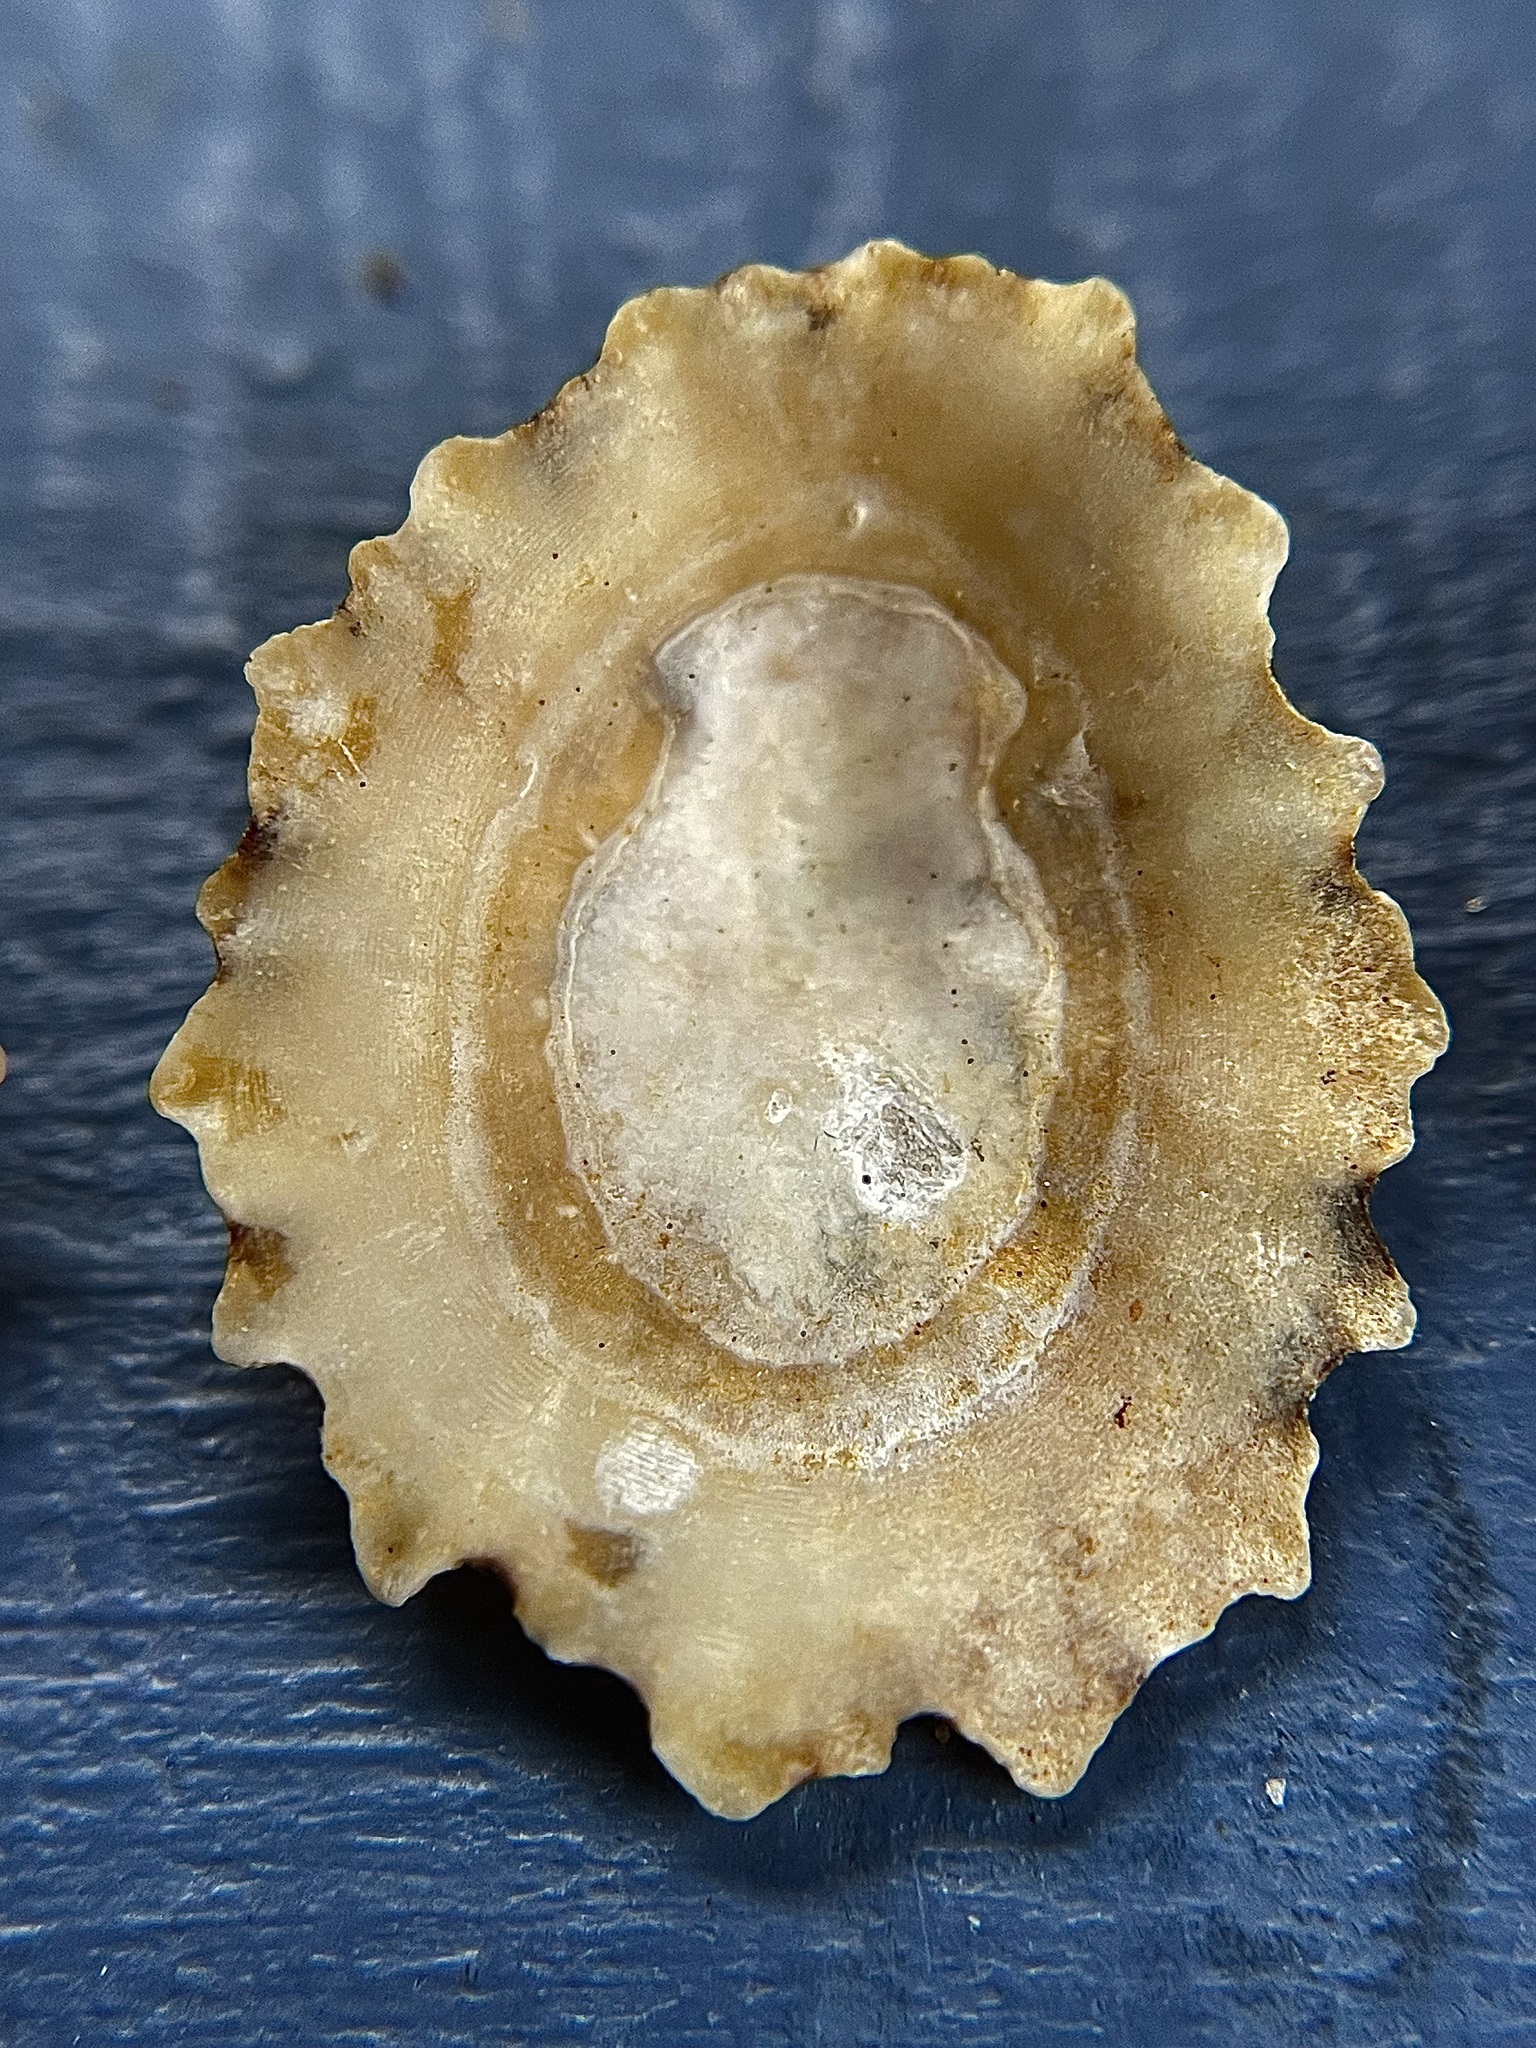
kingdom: Animalia
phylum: Mollusca
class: Gastropoda
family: Patellidae
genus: Patella
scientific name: Patella vulgata
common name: Common limpet
